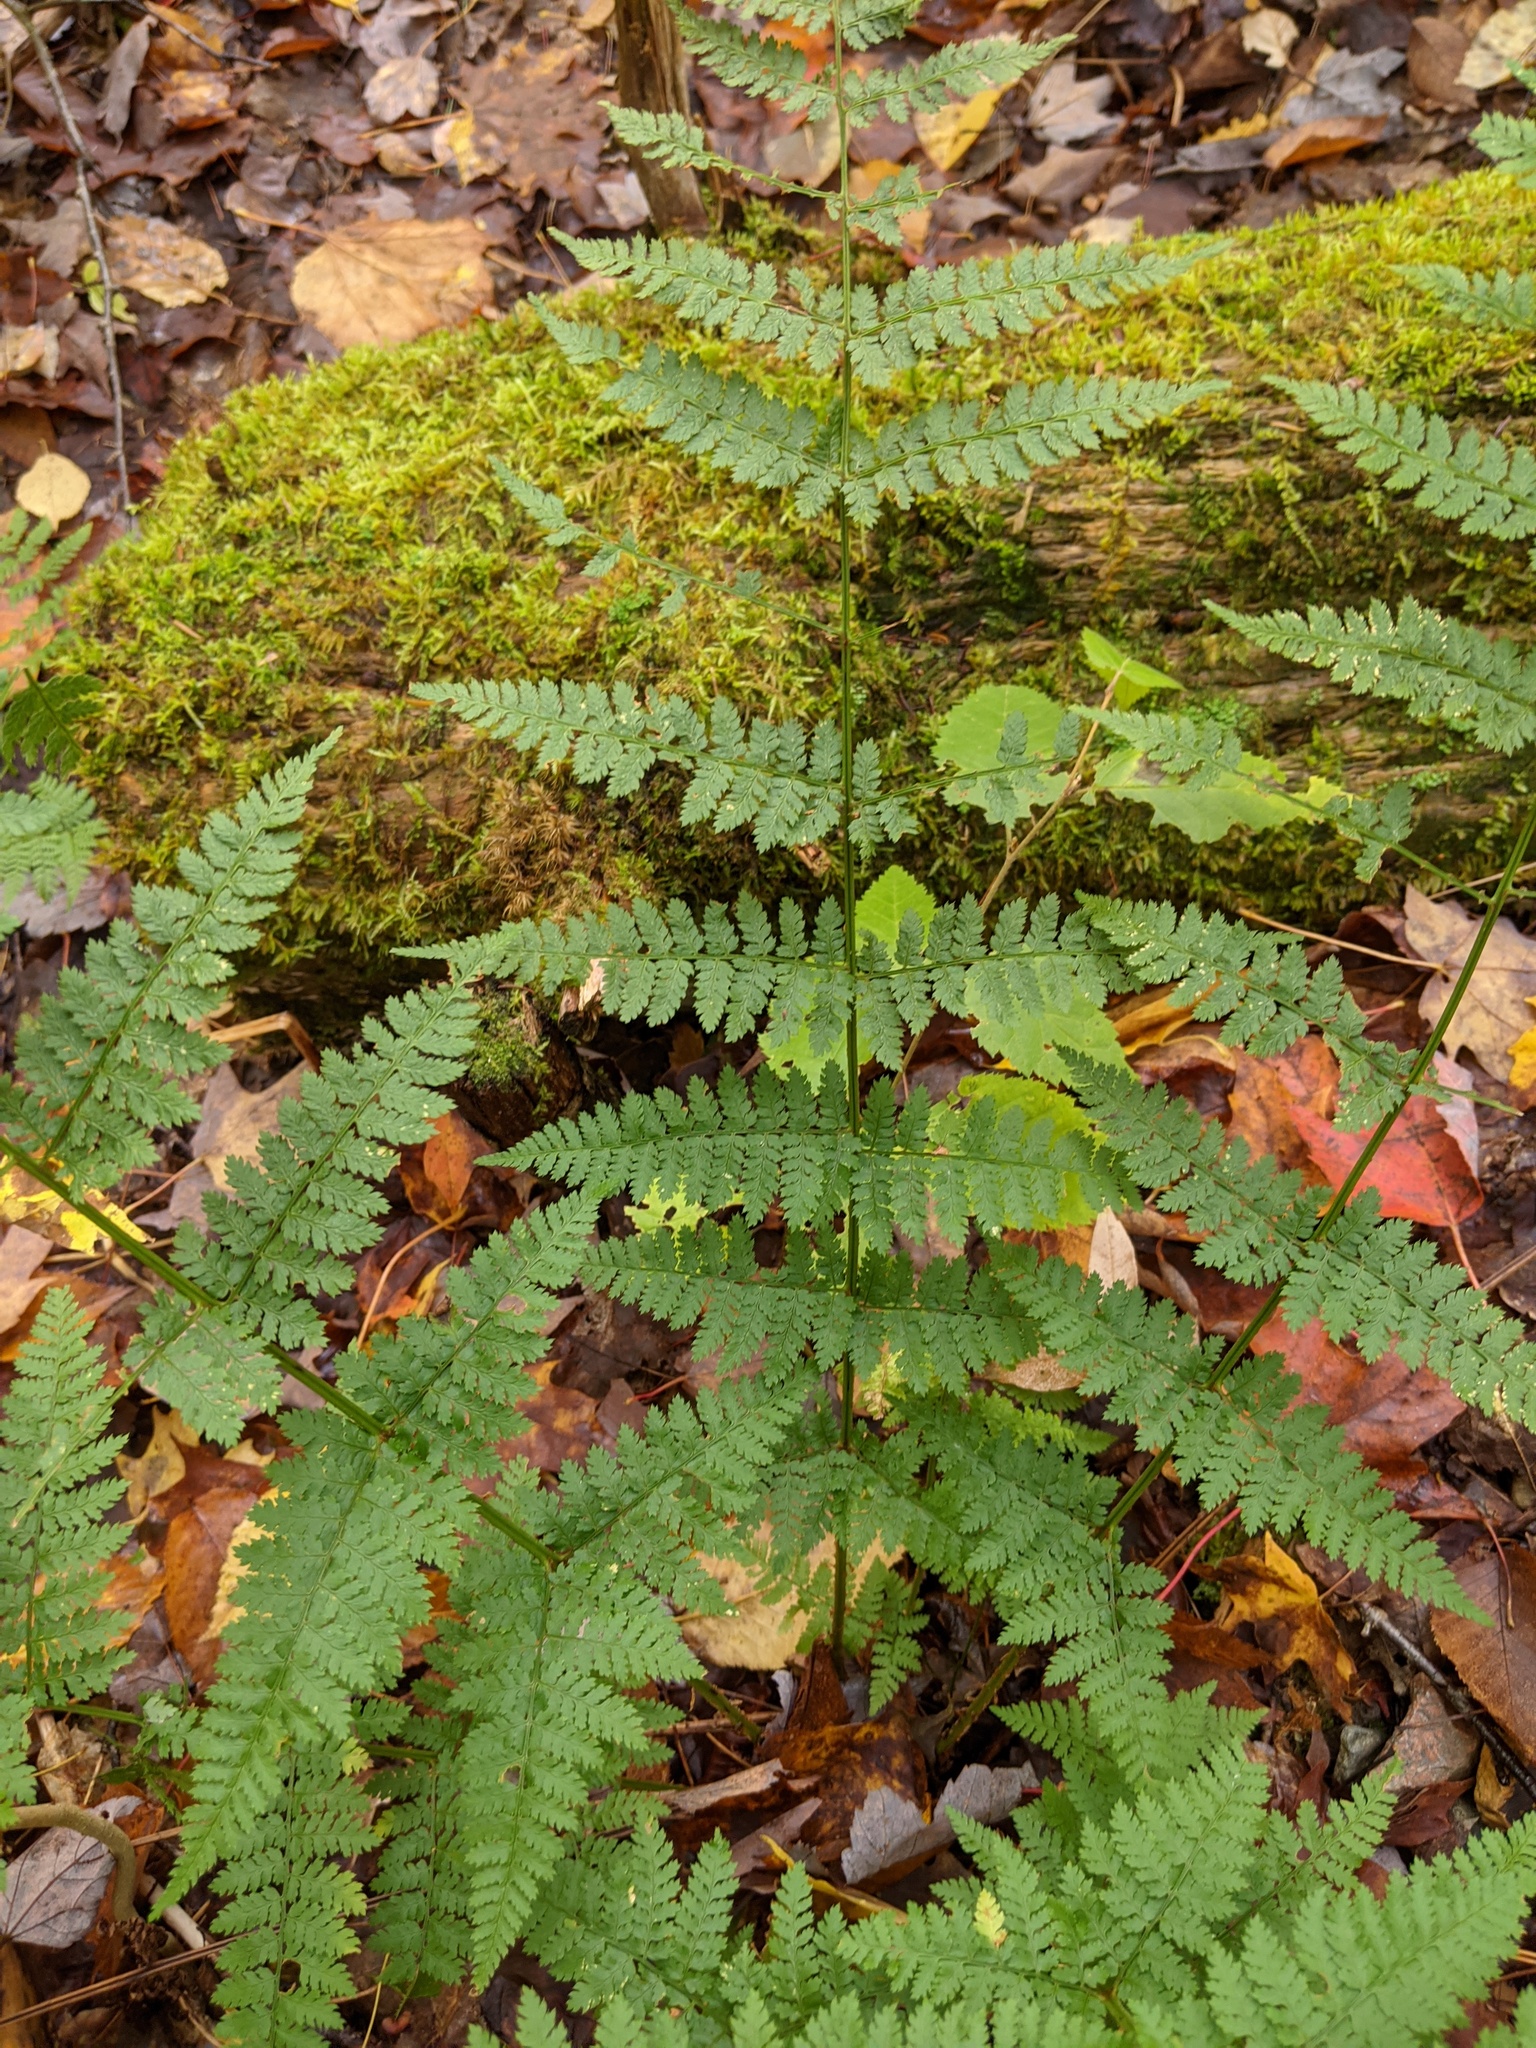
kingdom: Plantae
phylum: Tracheophyta
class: Polypodiopsida
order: Polypodiales
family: Dryopteridaceae
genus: Dryopteris
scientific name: Dryopteris intermedia
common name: Evergreen wood fern
